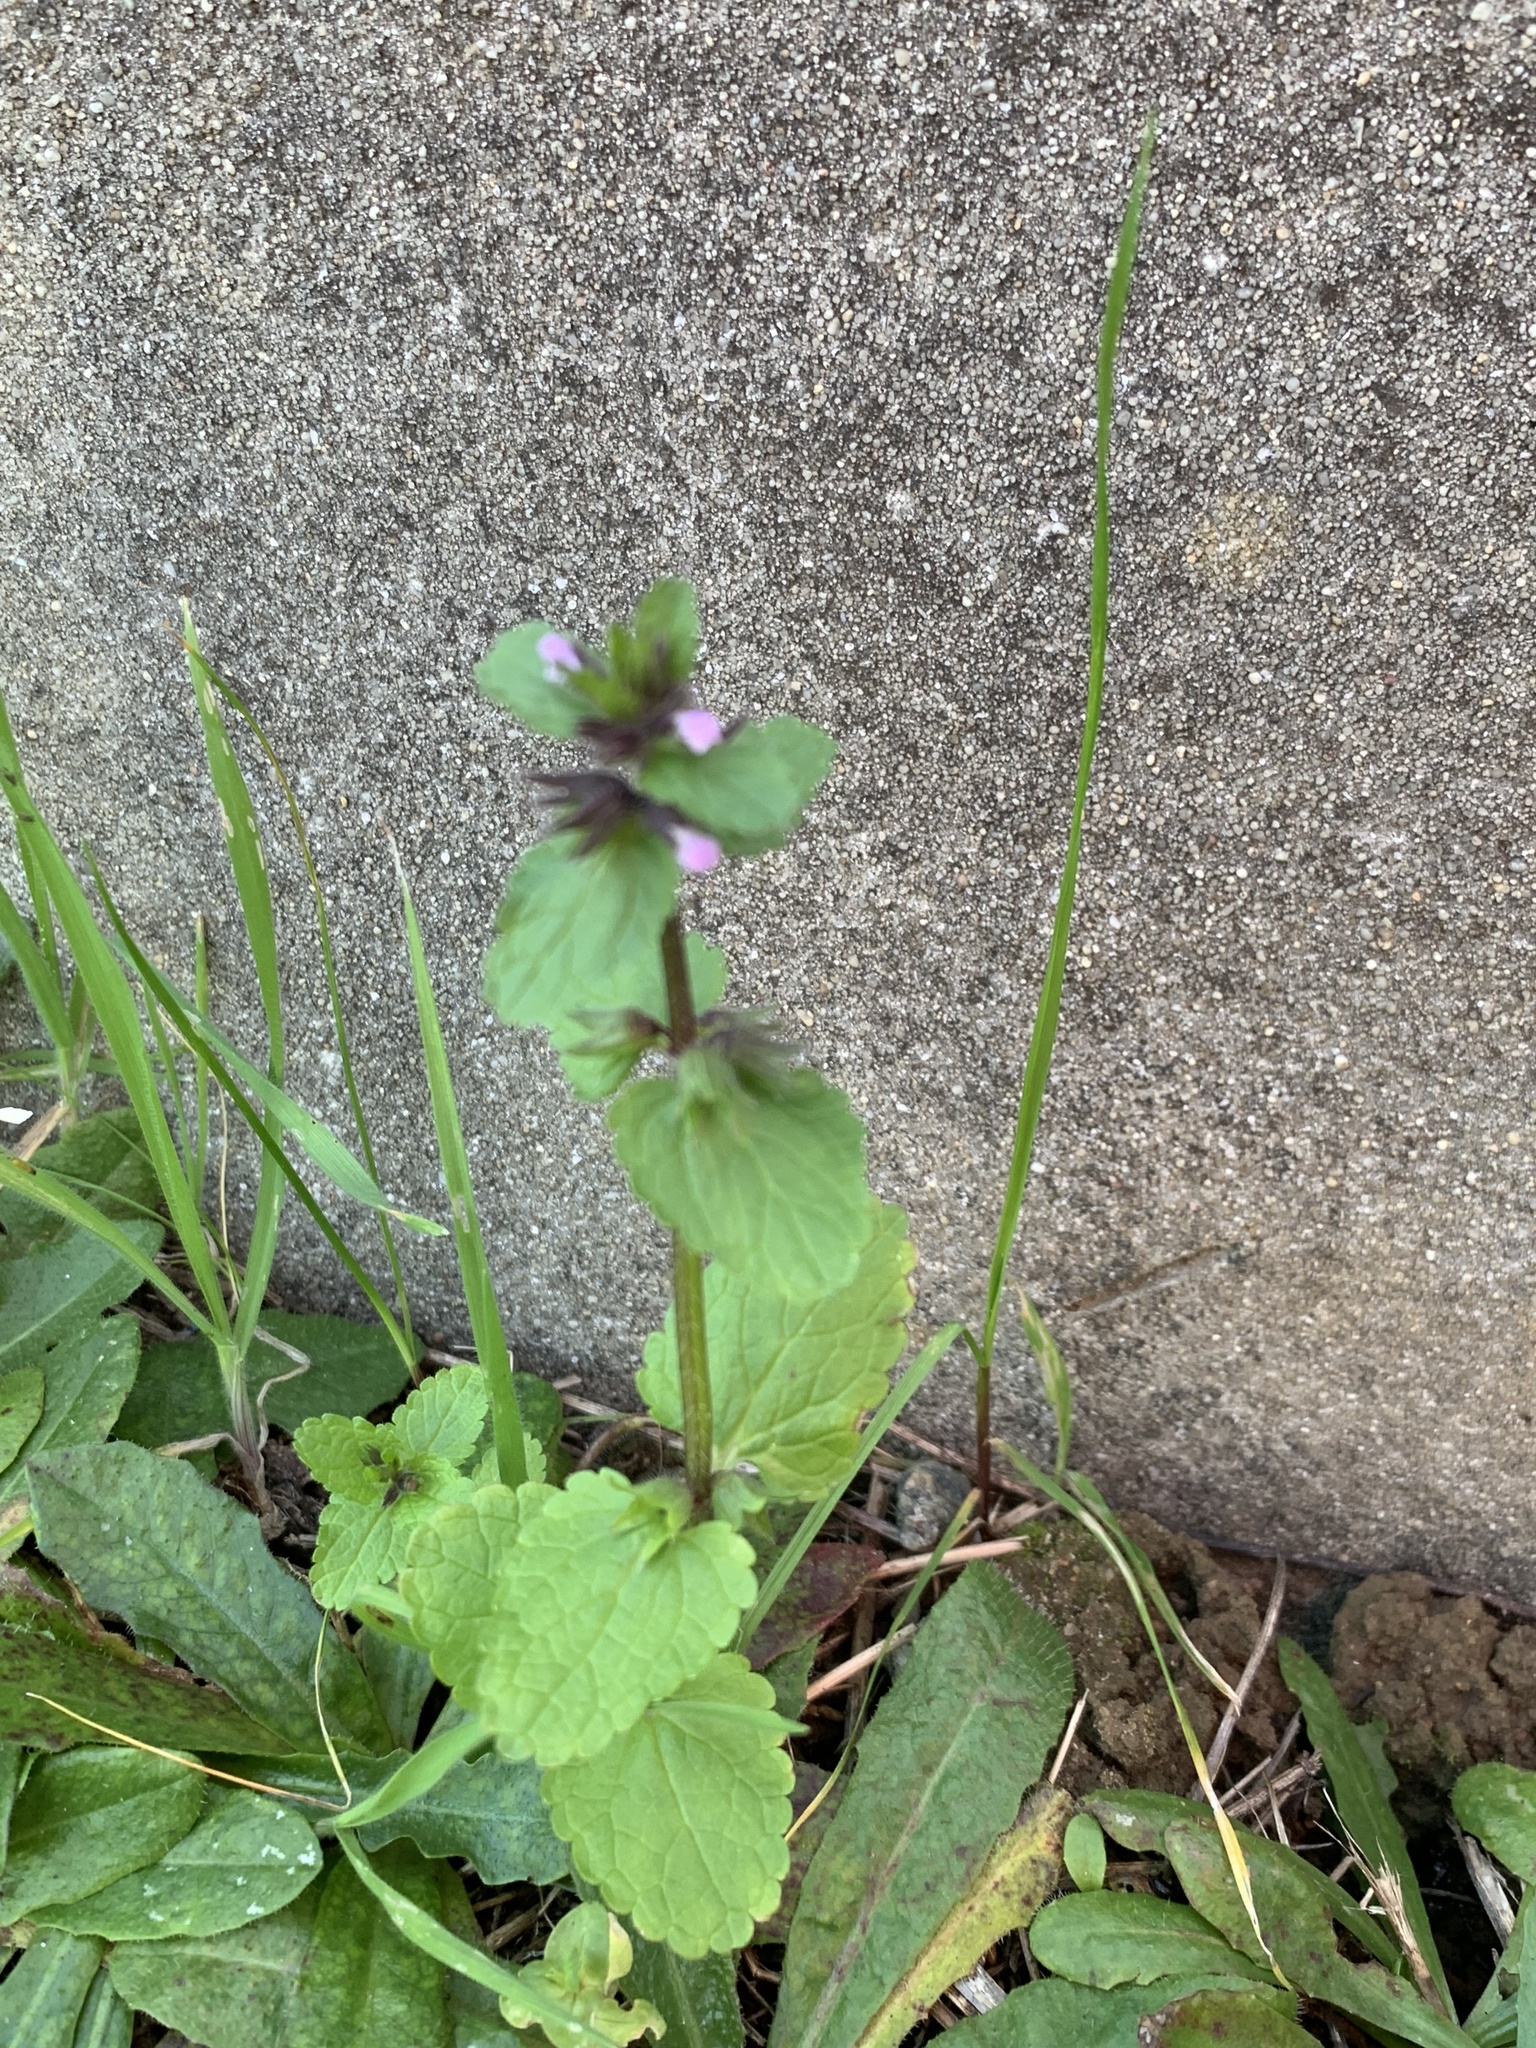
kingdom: Plantae
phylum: Tracheophyta
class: Magnoliopsida
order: Lamiales
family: Lamiaceae
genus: Stachys
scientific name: Stachys arvensis
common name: Field woundwort
